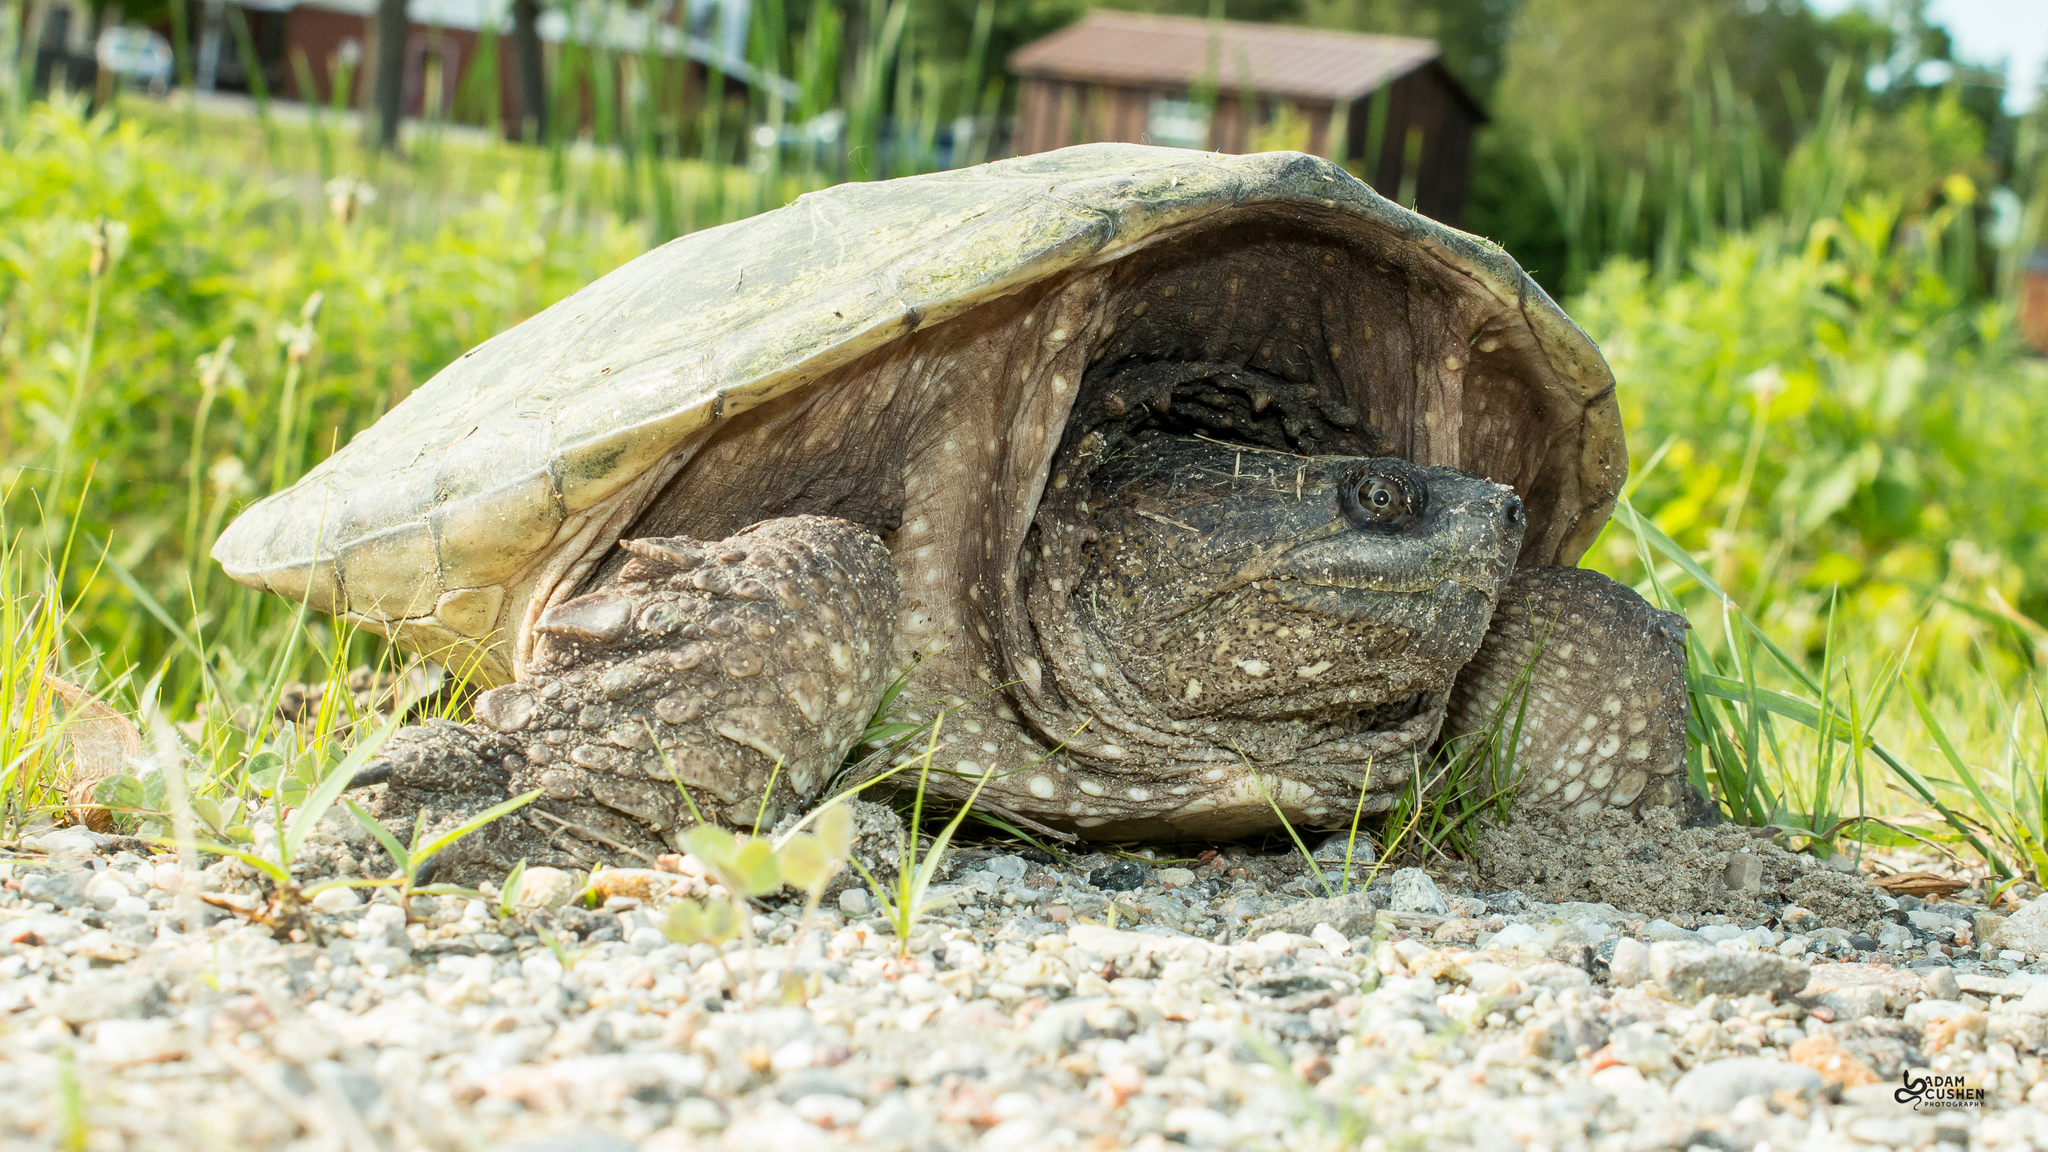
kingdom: Animalia
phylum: Chordata
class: Testudines
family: Chelydridae
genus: Chelydra
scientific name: Chelydra serpentina
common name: Common snapping turtle
